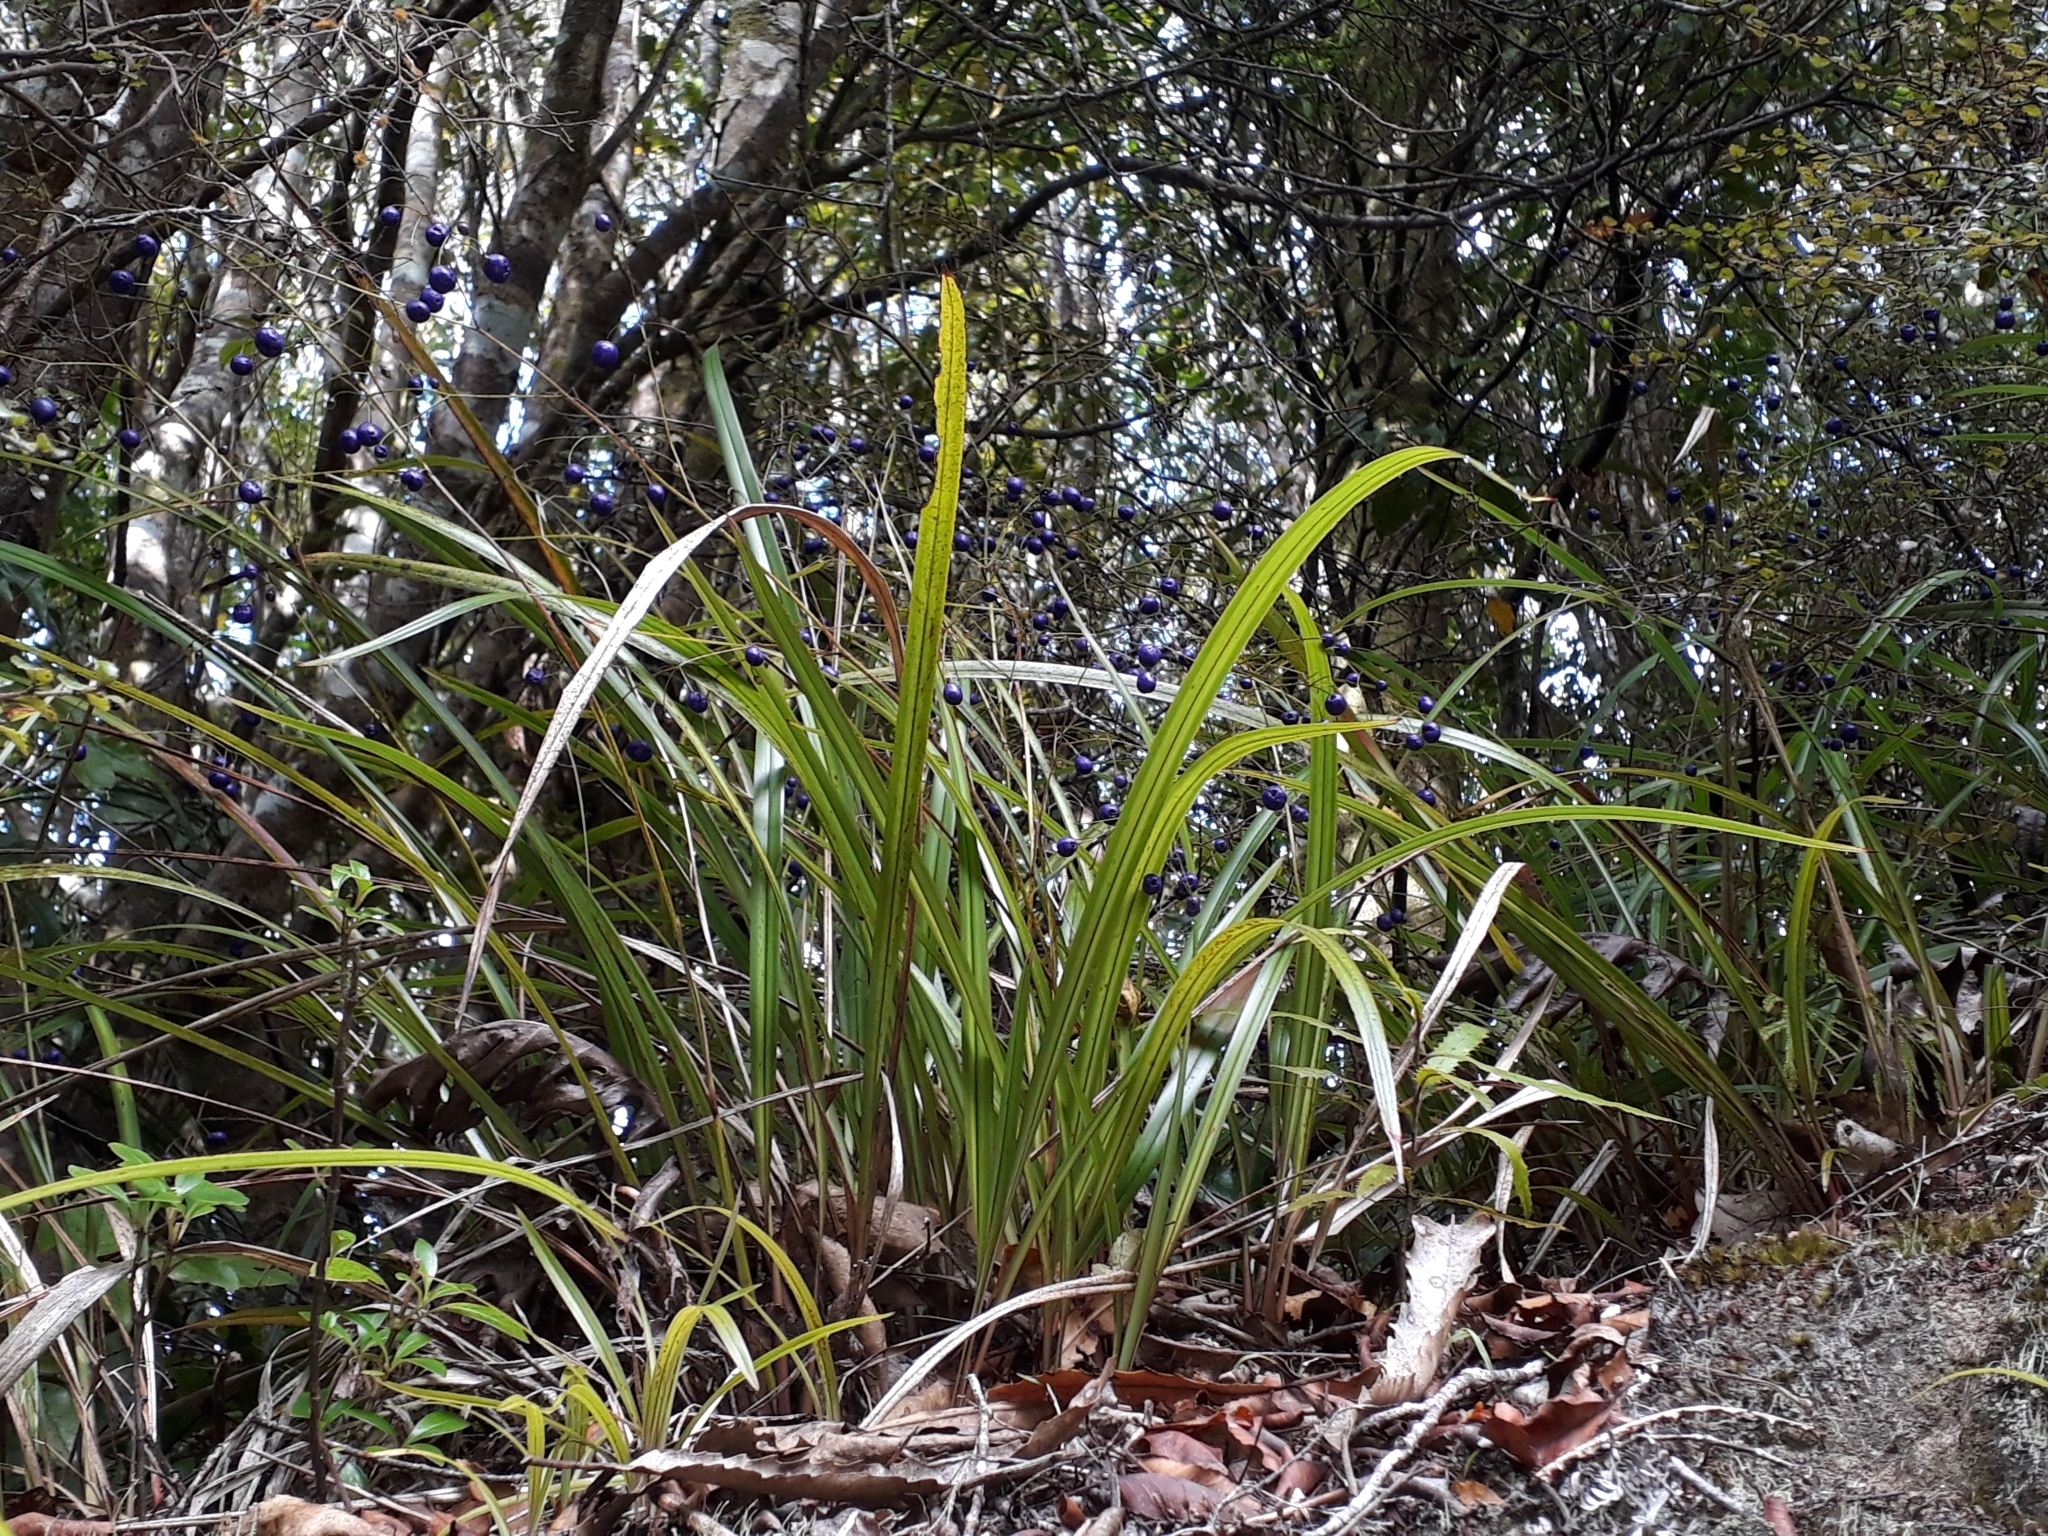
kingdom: Plantae
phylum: Tracheophyta
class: Liliopsida
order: Asparagales
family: Asphodelaceae
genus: Dianella
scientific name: Dianella nigra
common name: New zealand-blueberry
